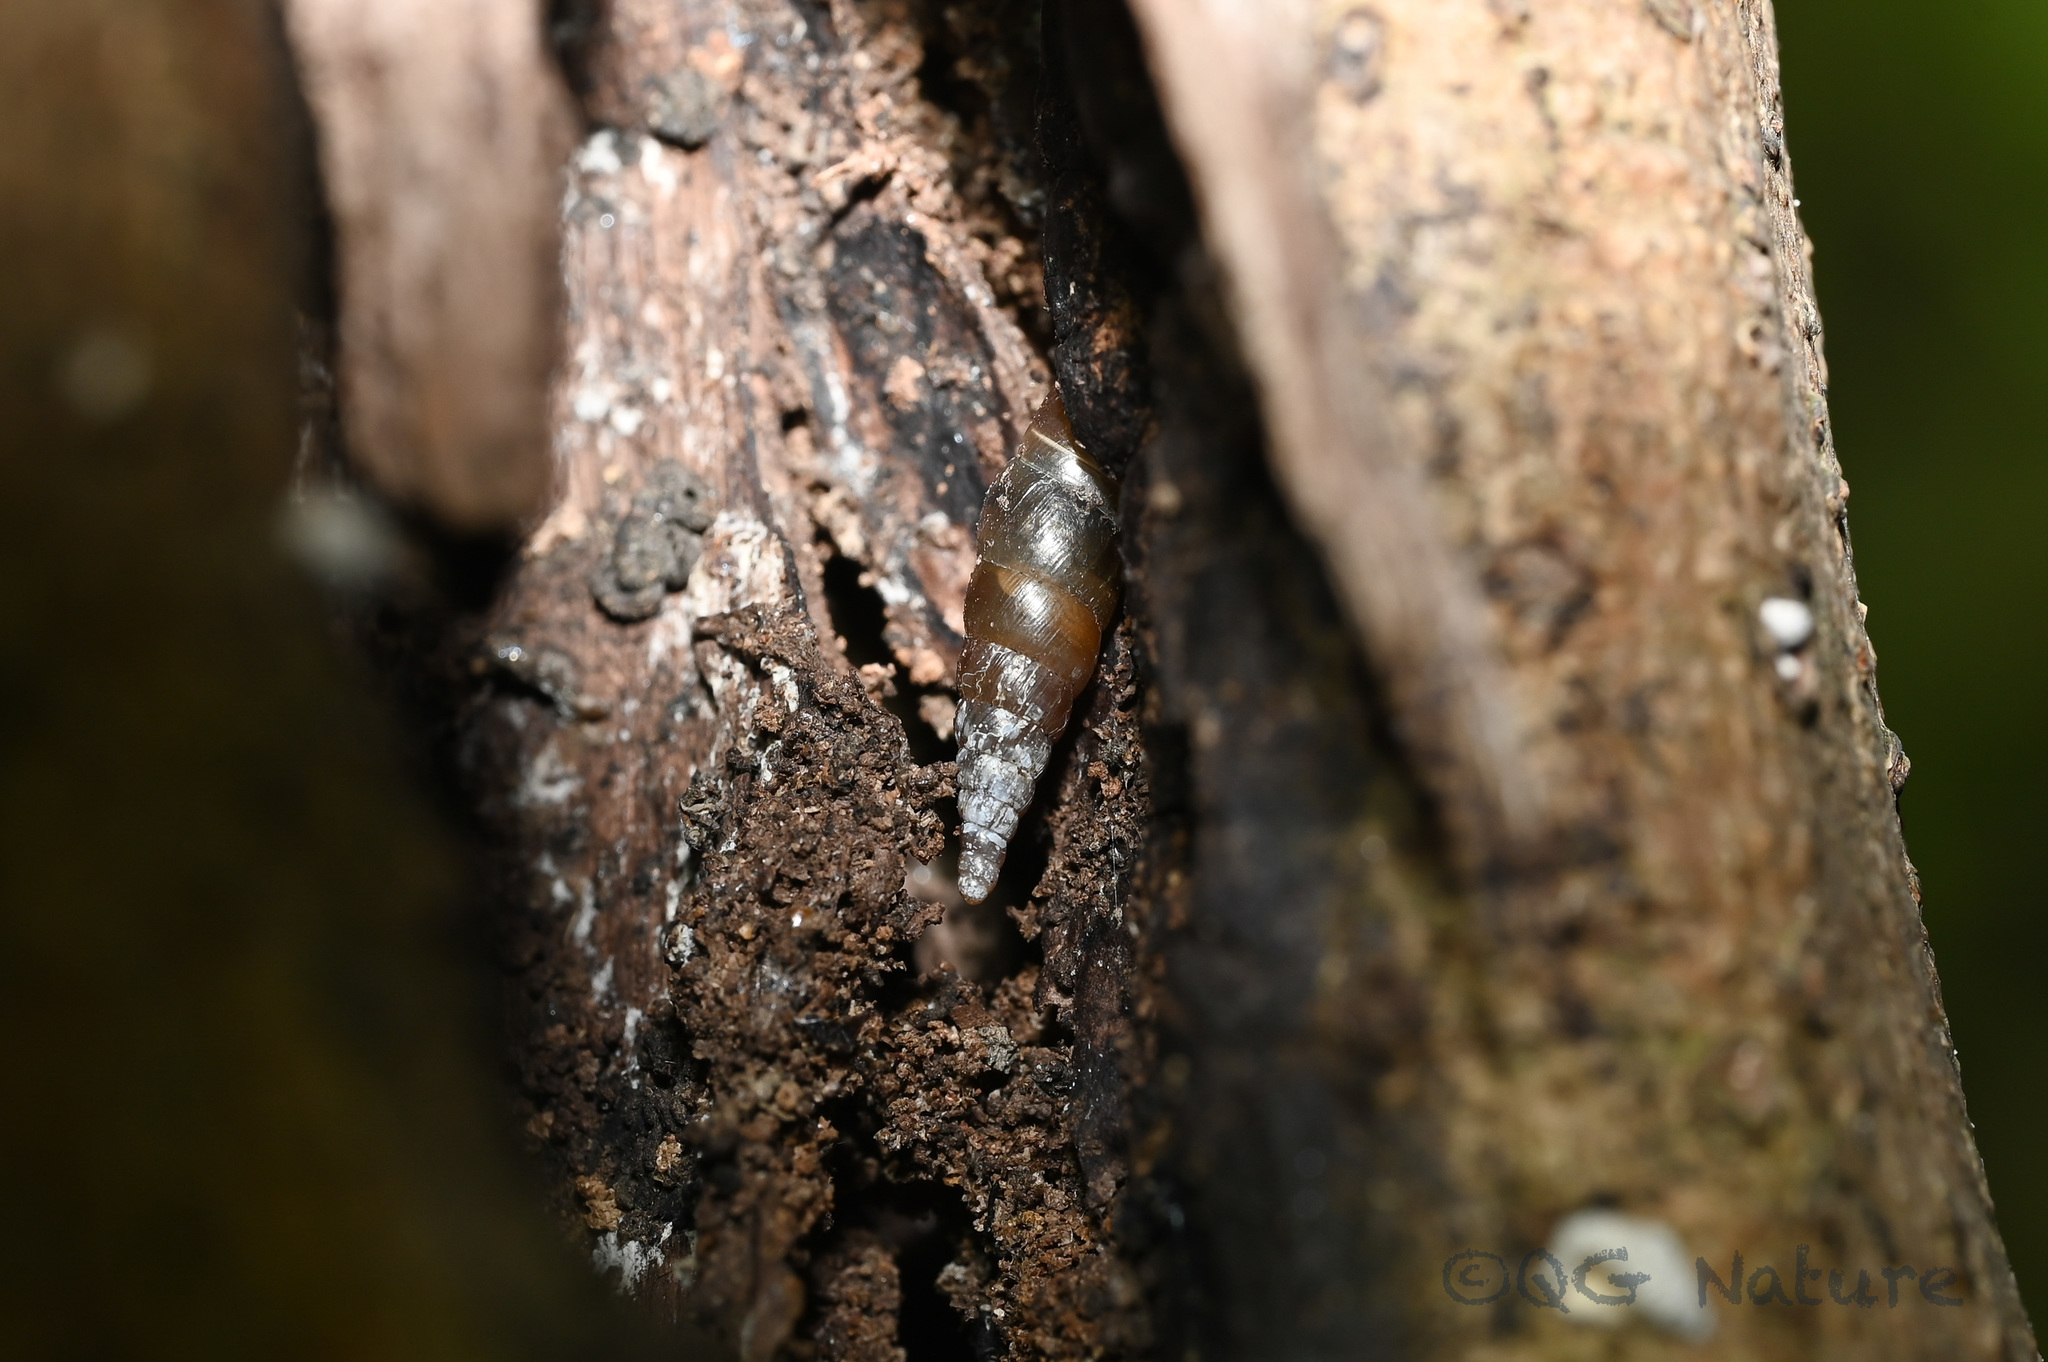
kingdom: Animalia
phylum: Mollusca
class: Gastropoda
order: Stylommatophora
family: Clausiliidae
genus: Euphaedusa
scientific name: Euphaedusa aculus
